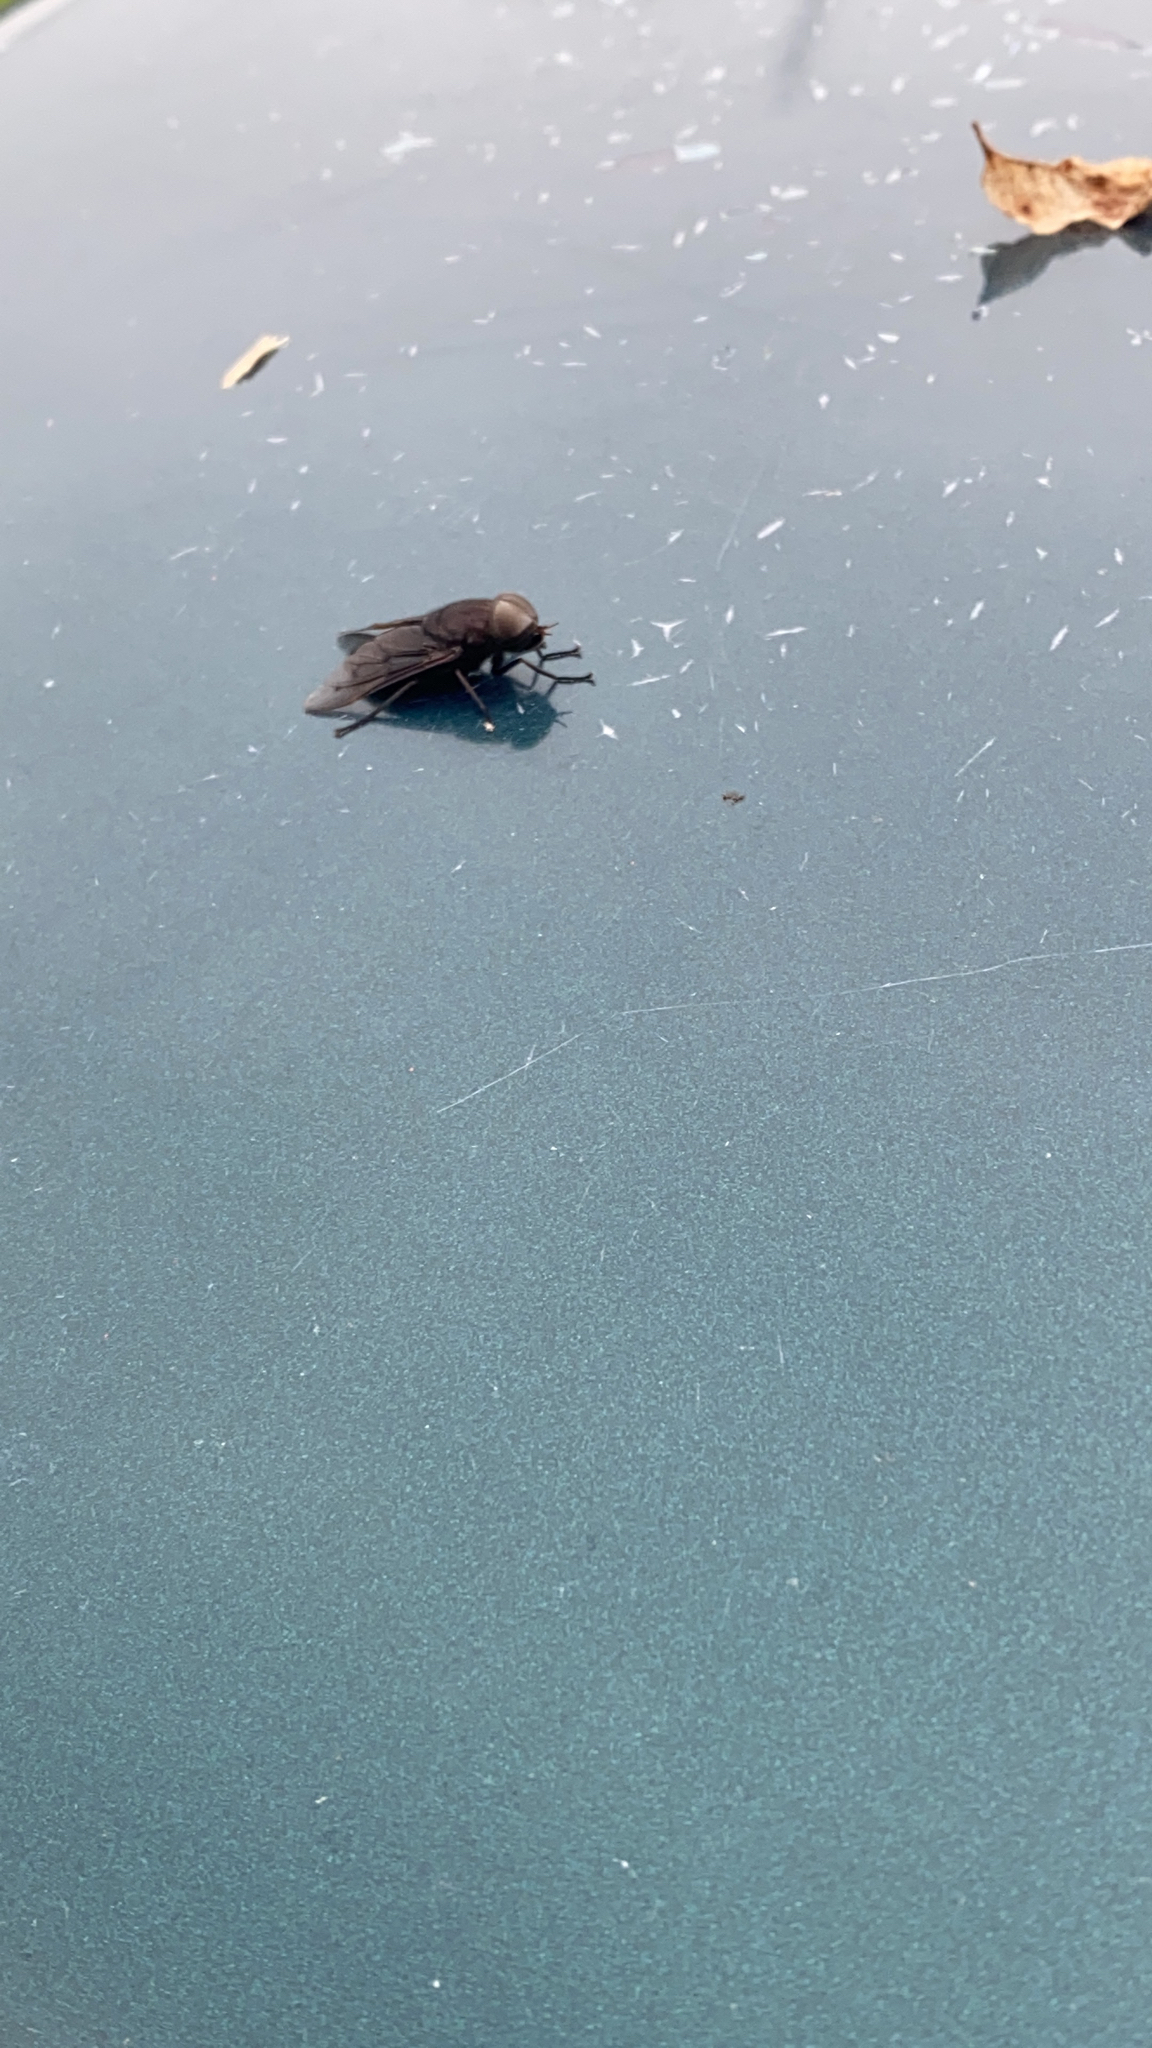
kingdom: Animalia
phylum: Arthropoda
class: Insecta
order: Diptera
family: Tabanidae
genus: Tabanus
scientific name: Tabanus atratus
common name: Black horse fly
